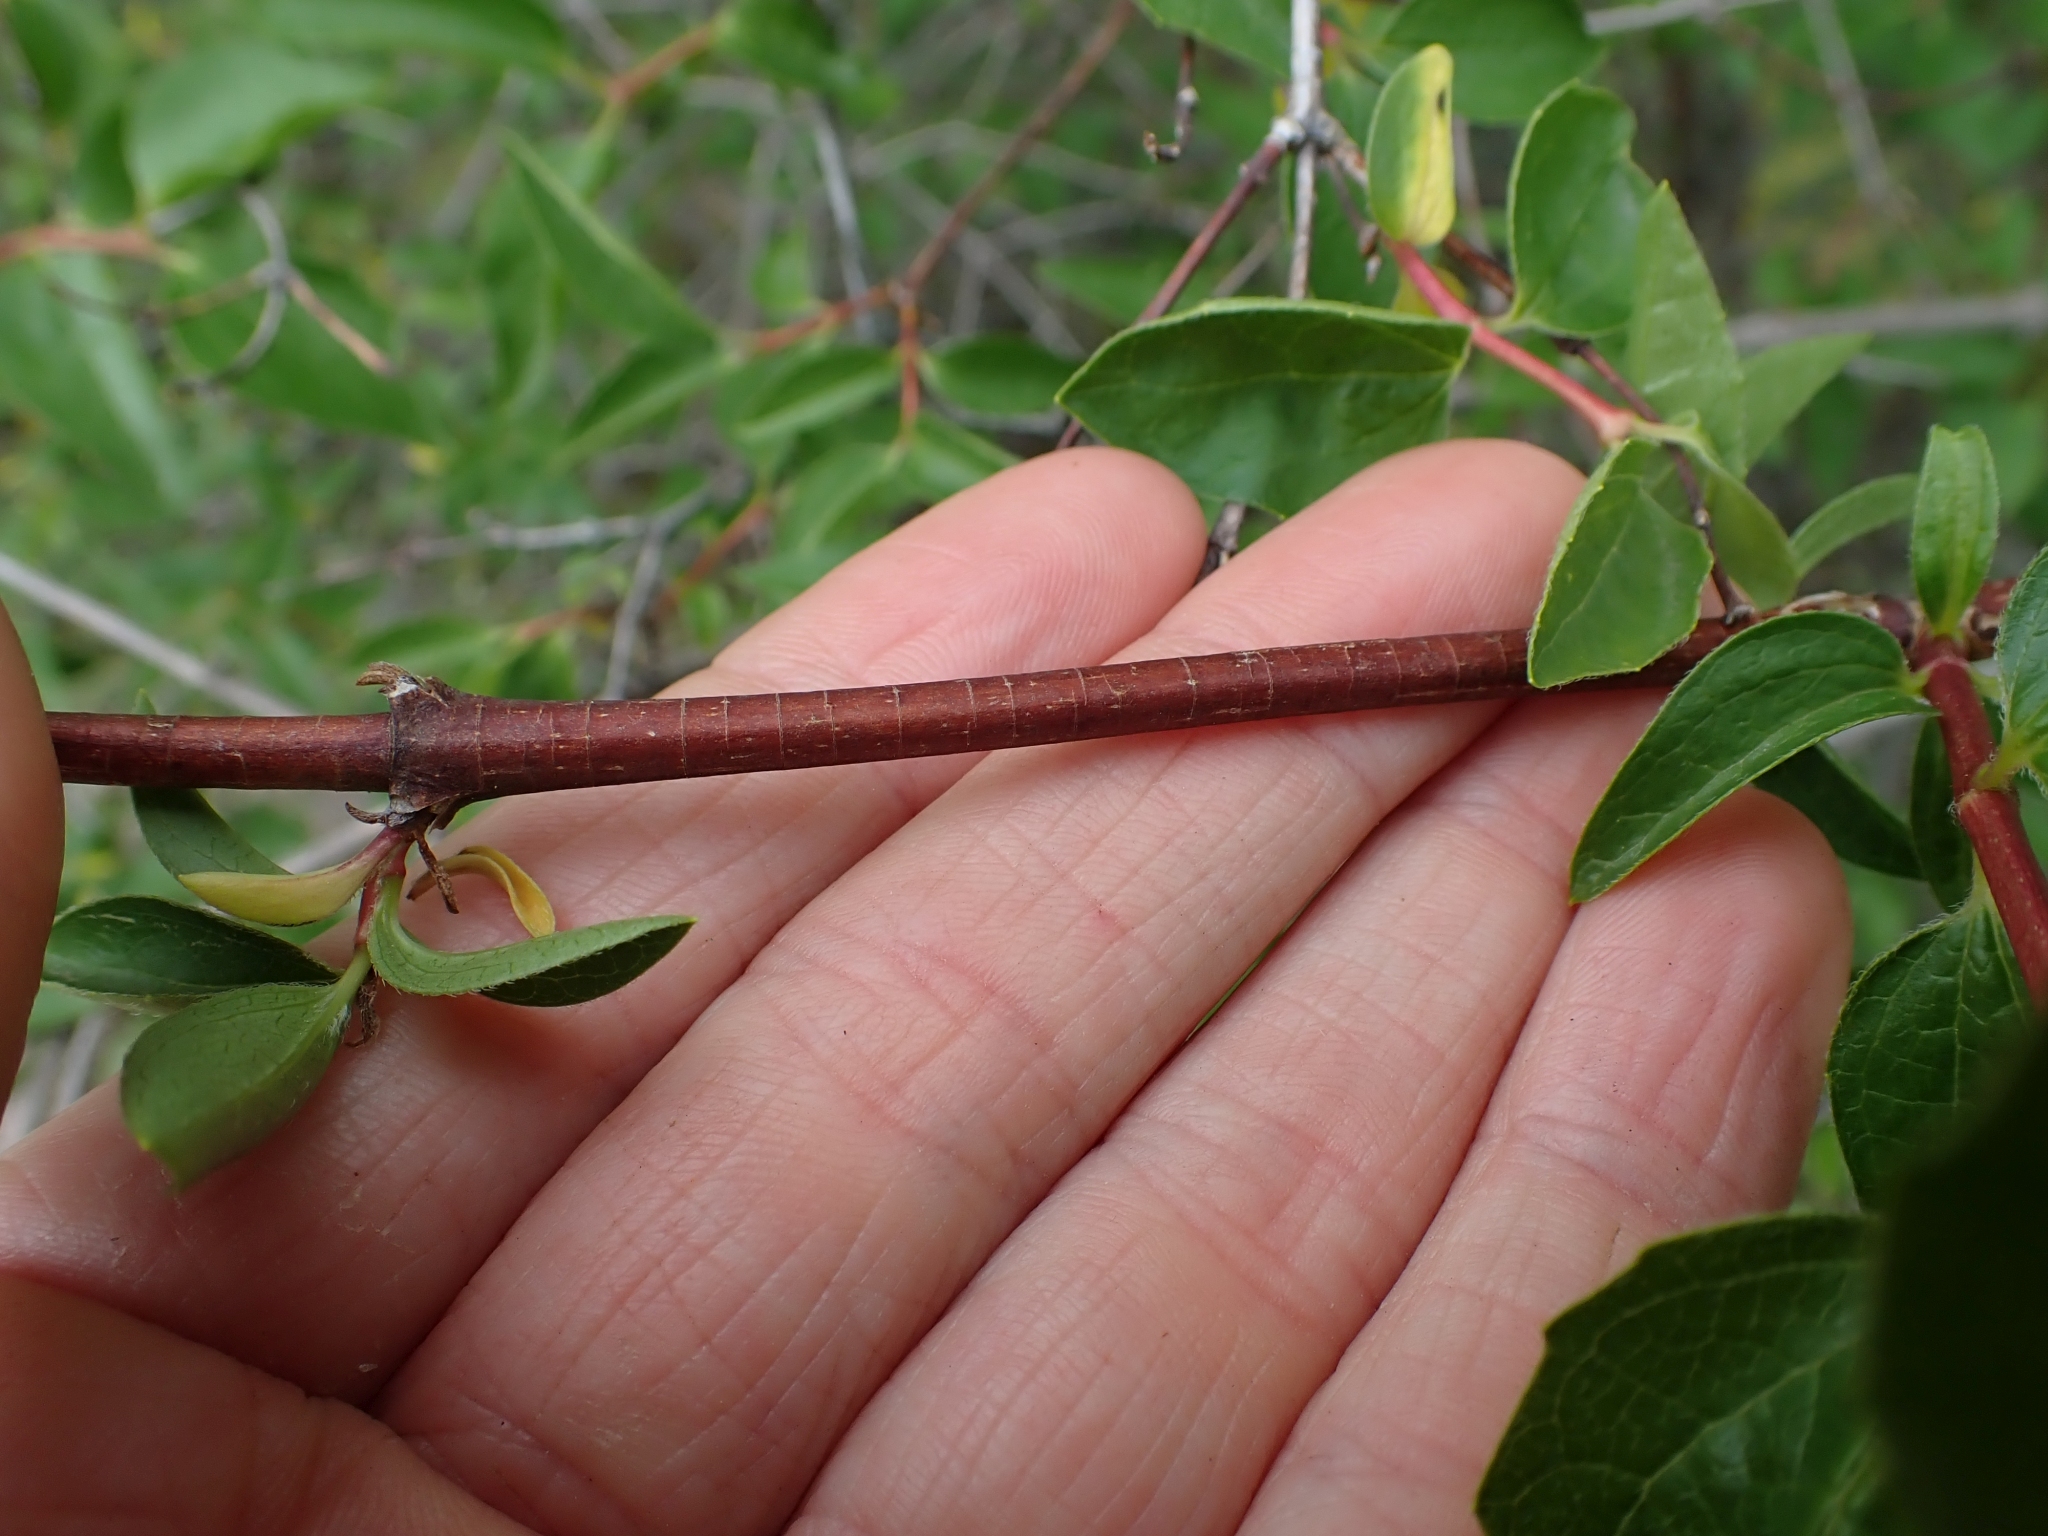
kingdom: Plantae
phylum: Tracheophyta
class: Magnoliopsida
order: Cornales
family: Hydrangeaceae
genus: Philadelphus
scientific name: Philadelphus lewisii
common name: Lewis's mock orange
